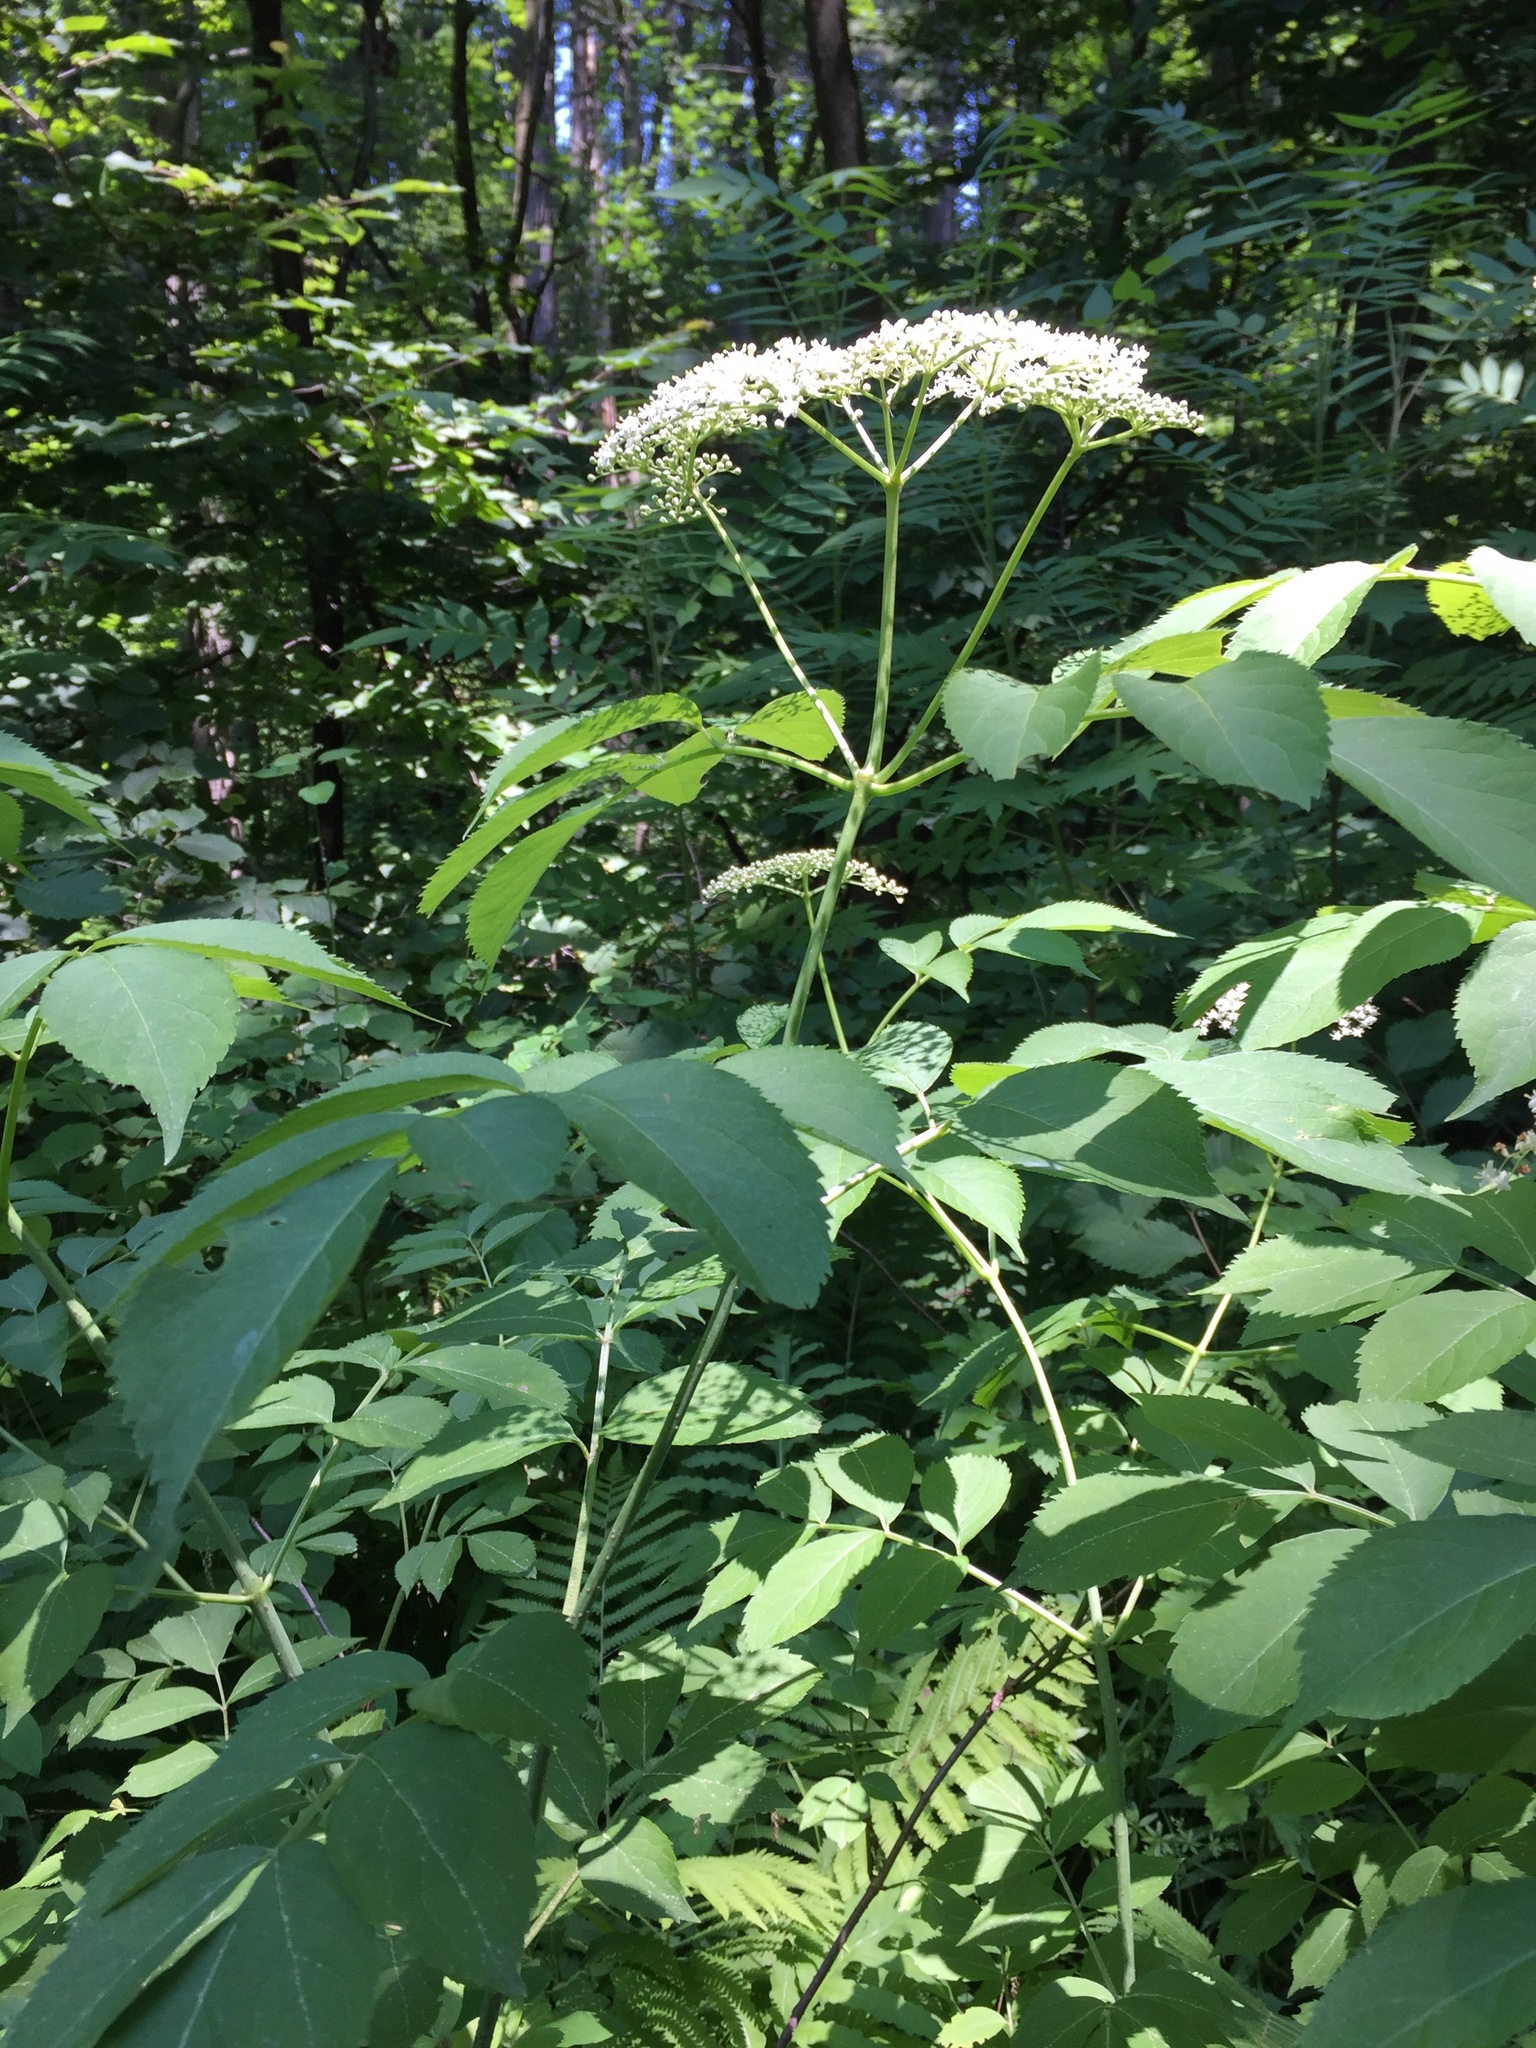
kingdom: Plantae
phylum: Tracheophyta
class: Magnoliopsida
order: Dipsacales
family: Viburnaceae
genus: Sambucus
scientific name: Sambucus canadensis
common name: American elder
